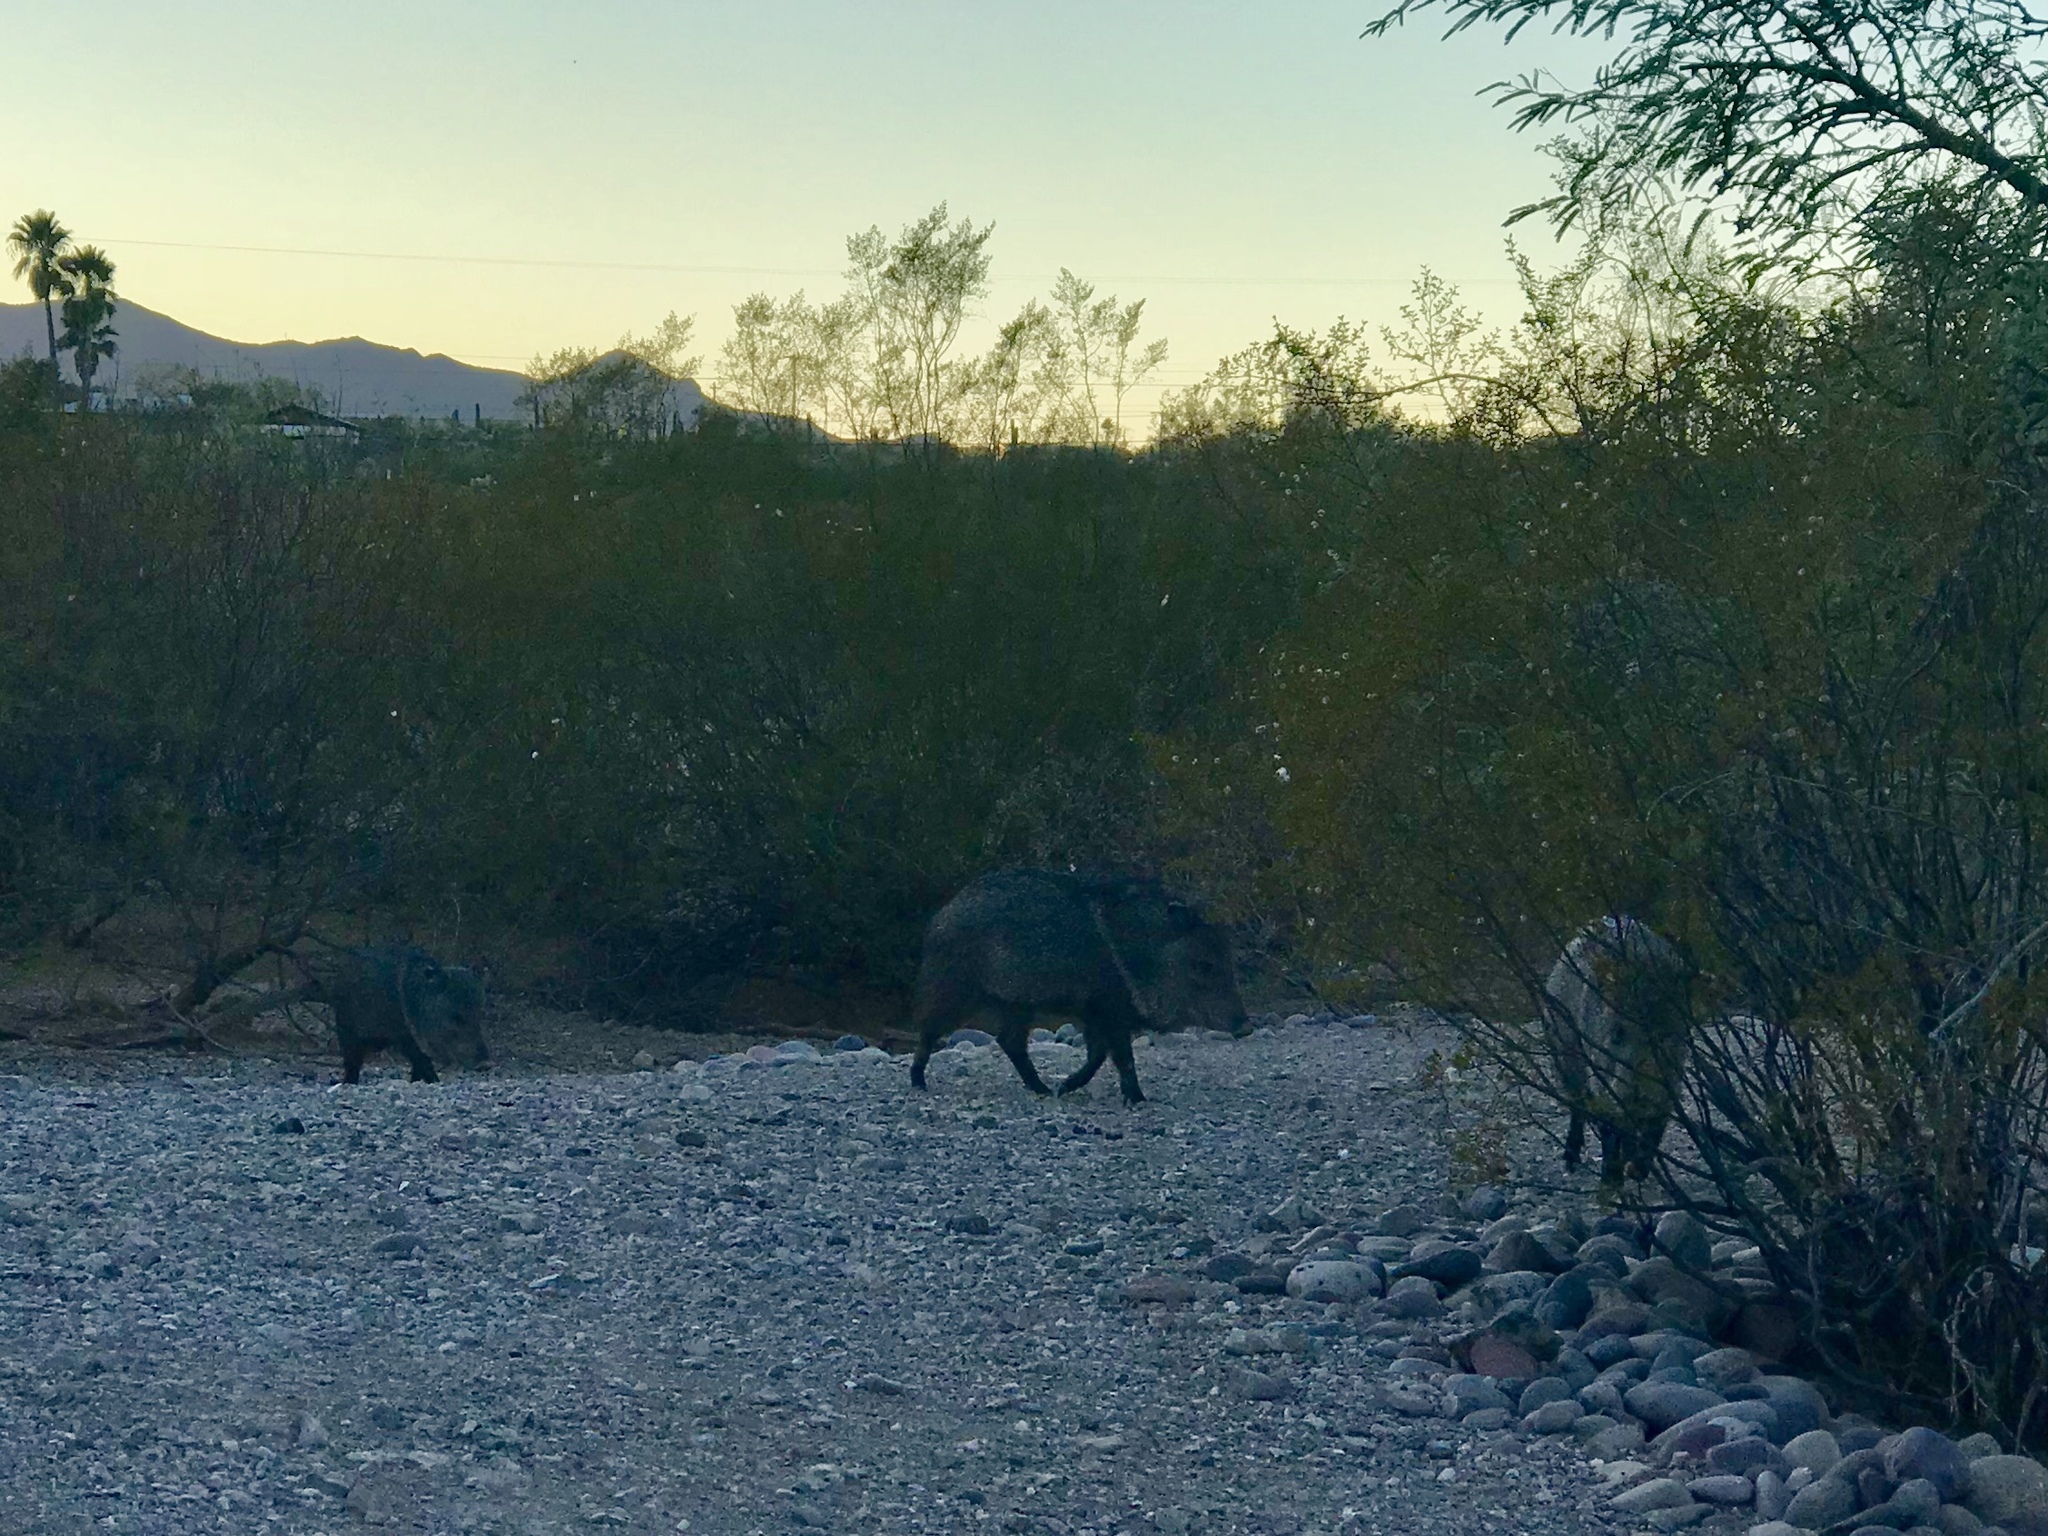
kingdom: Animalia
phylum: Chordata
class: Mammalia
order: Artiodactyla
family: Tayassuidae
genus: Pecari
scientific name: Pecari tajacu
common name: Collared peccary
